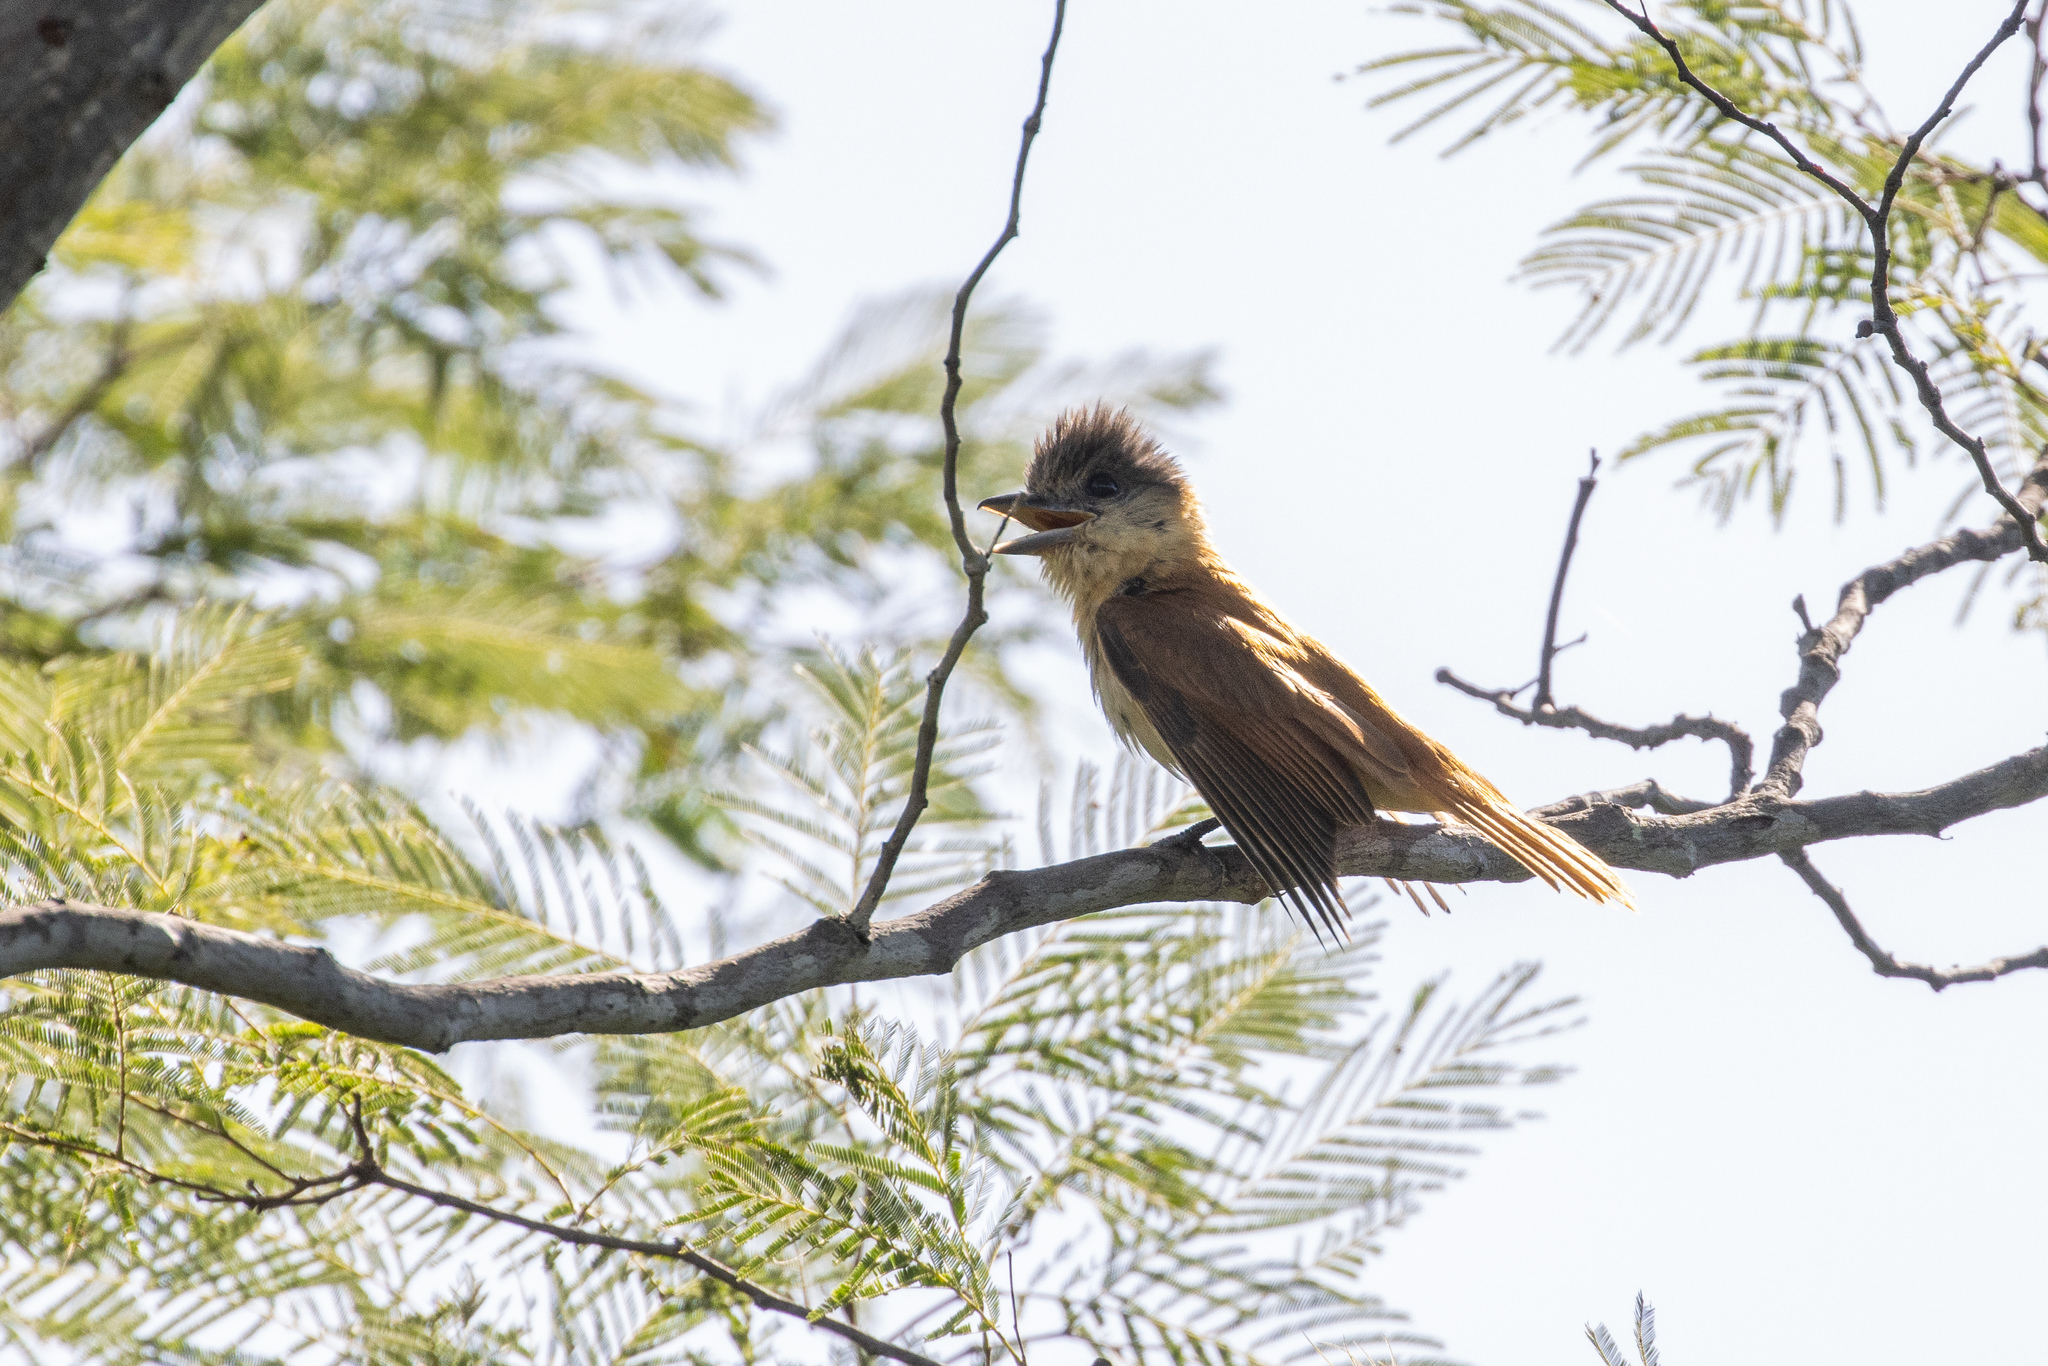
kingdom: Animalia
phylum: Chordata
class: Aves
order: Passeriformes
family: Cotingidae
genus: Pachyramphus
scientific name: Pachyramphus validus
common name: Crested becard
